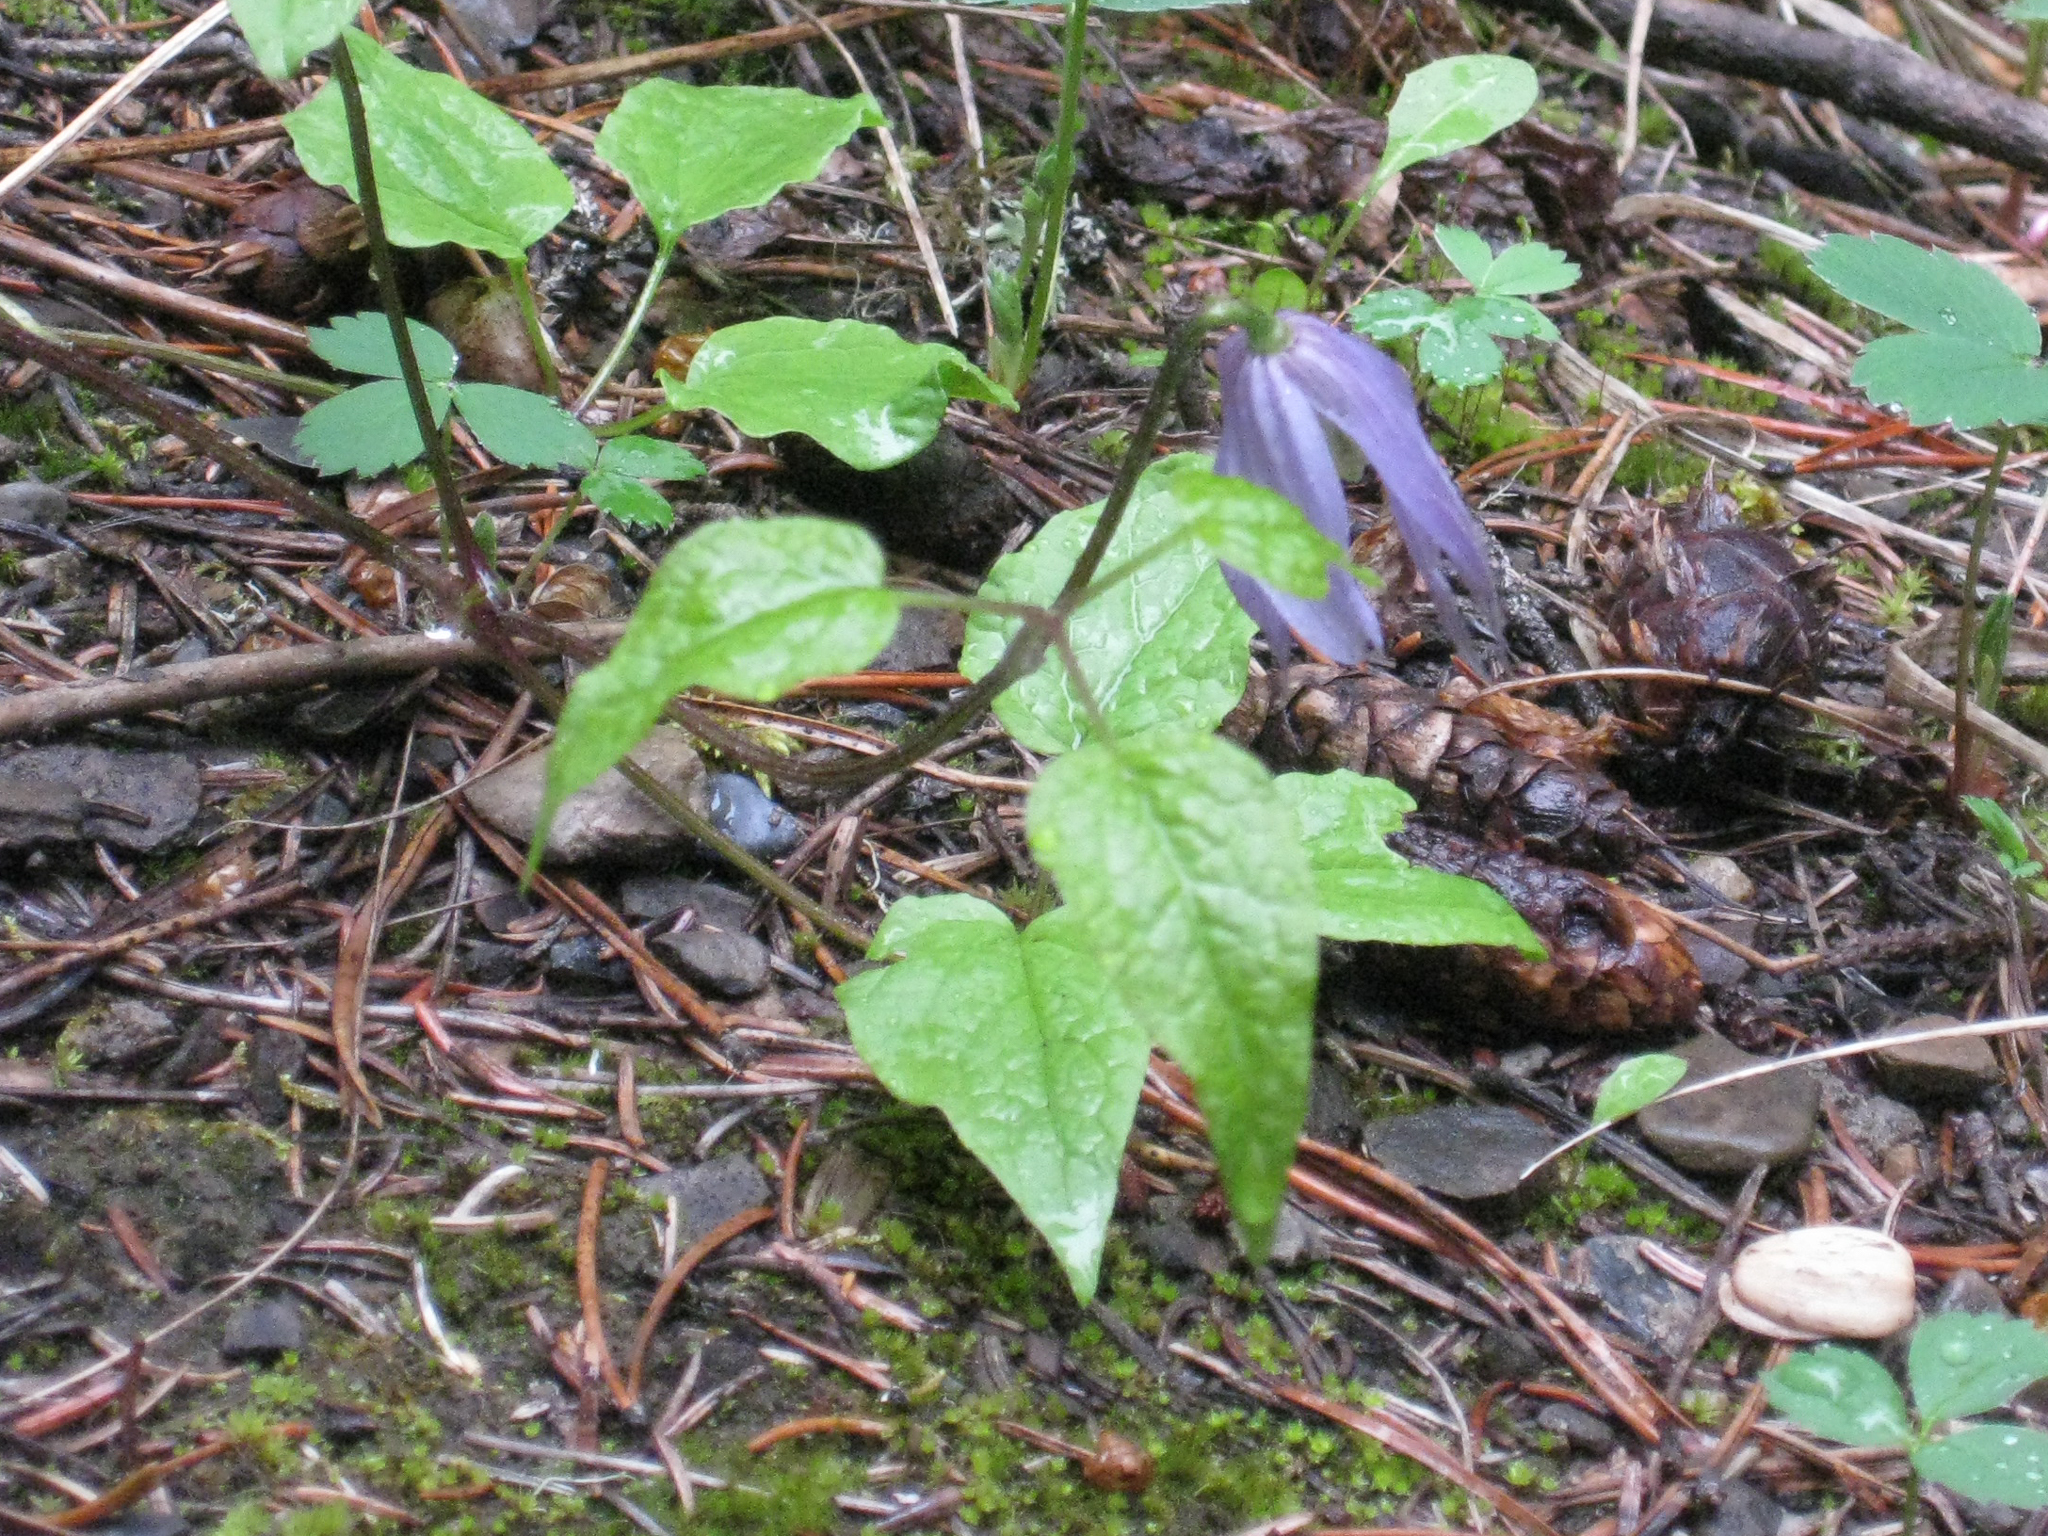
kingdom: Plantae
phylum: Tracheophyta
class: Magnoliopsida
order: Ranunculales
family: Ranunculaceae
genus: Clematis
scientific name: Clematis occidentalis
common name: Purple clematis
